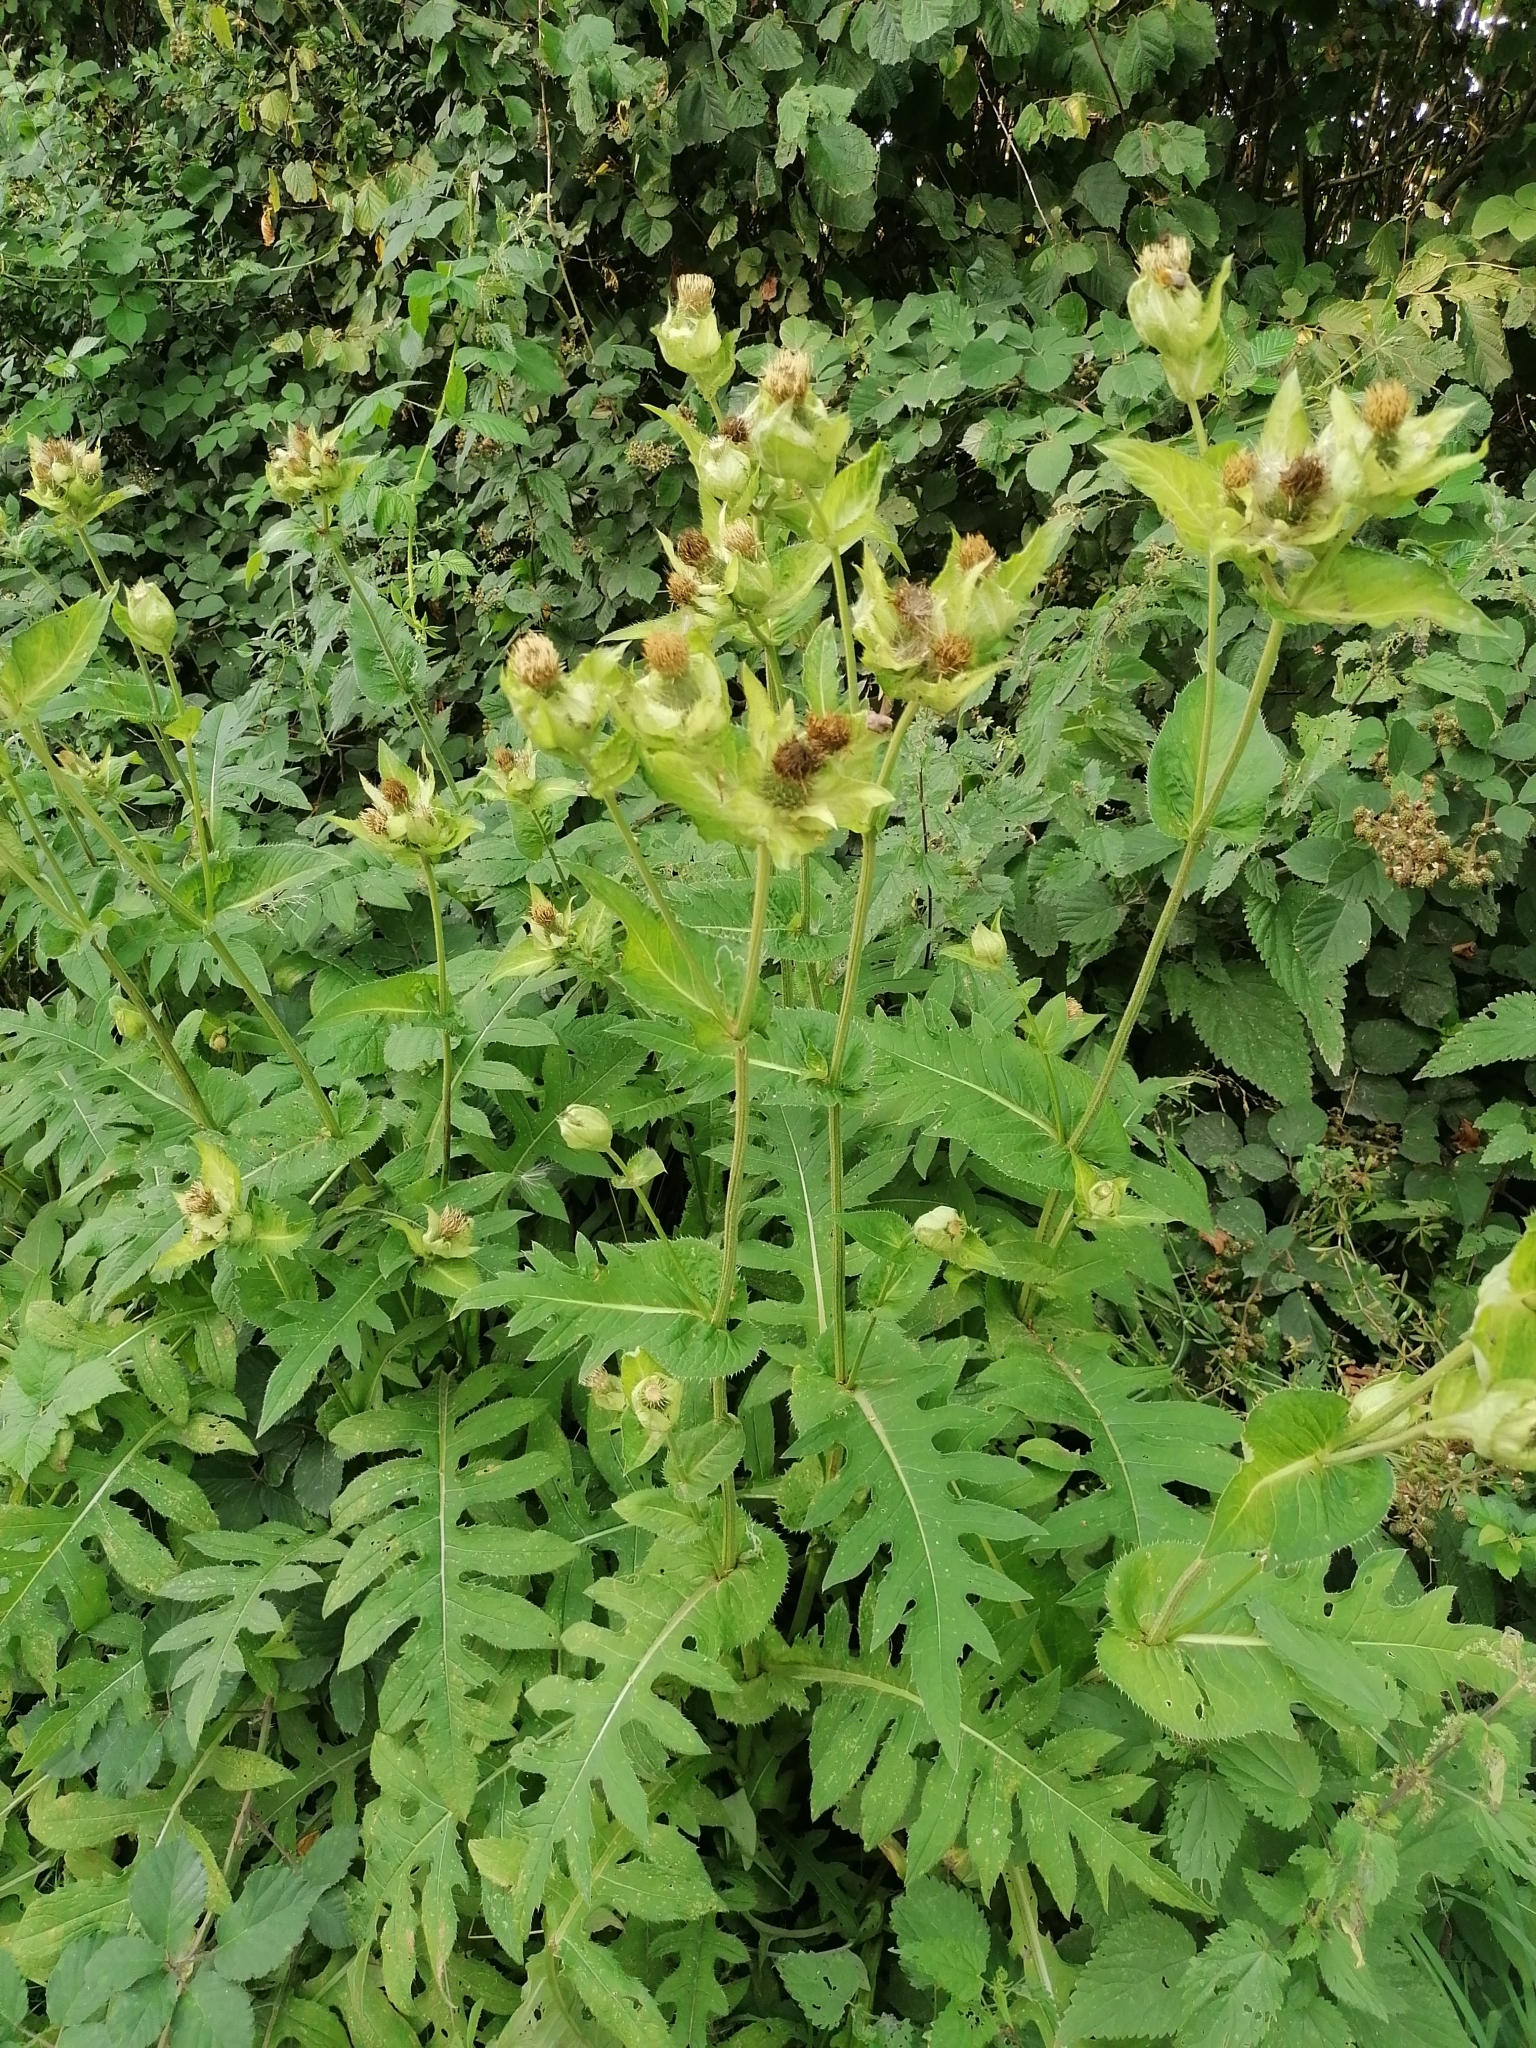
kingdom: Plantae
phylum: Tracheophyta
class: Magnoliopsida
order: Asterales
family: Asteraceae
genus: Cirsium
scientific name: Cirsium oleraceum
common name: Cabbage thistle
